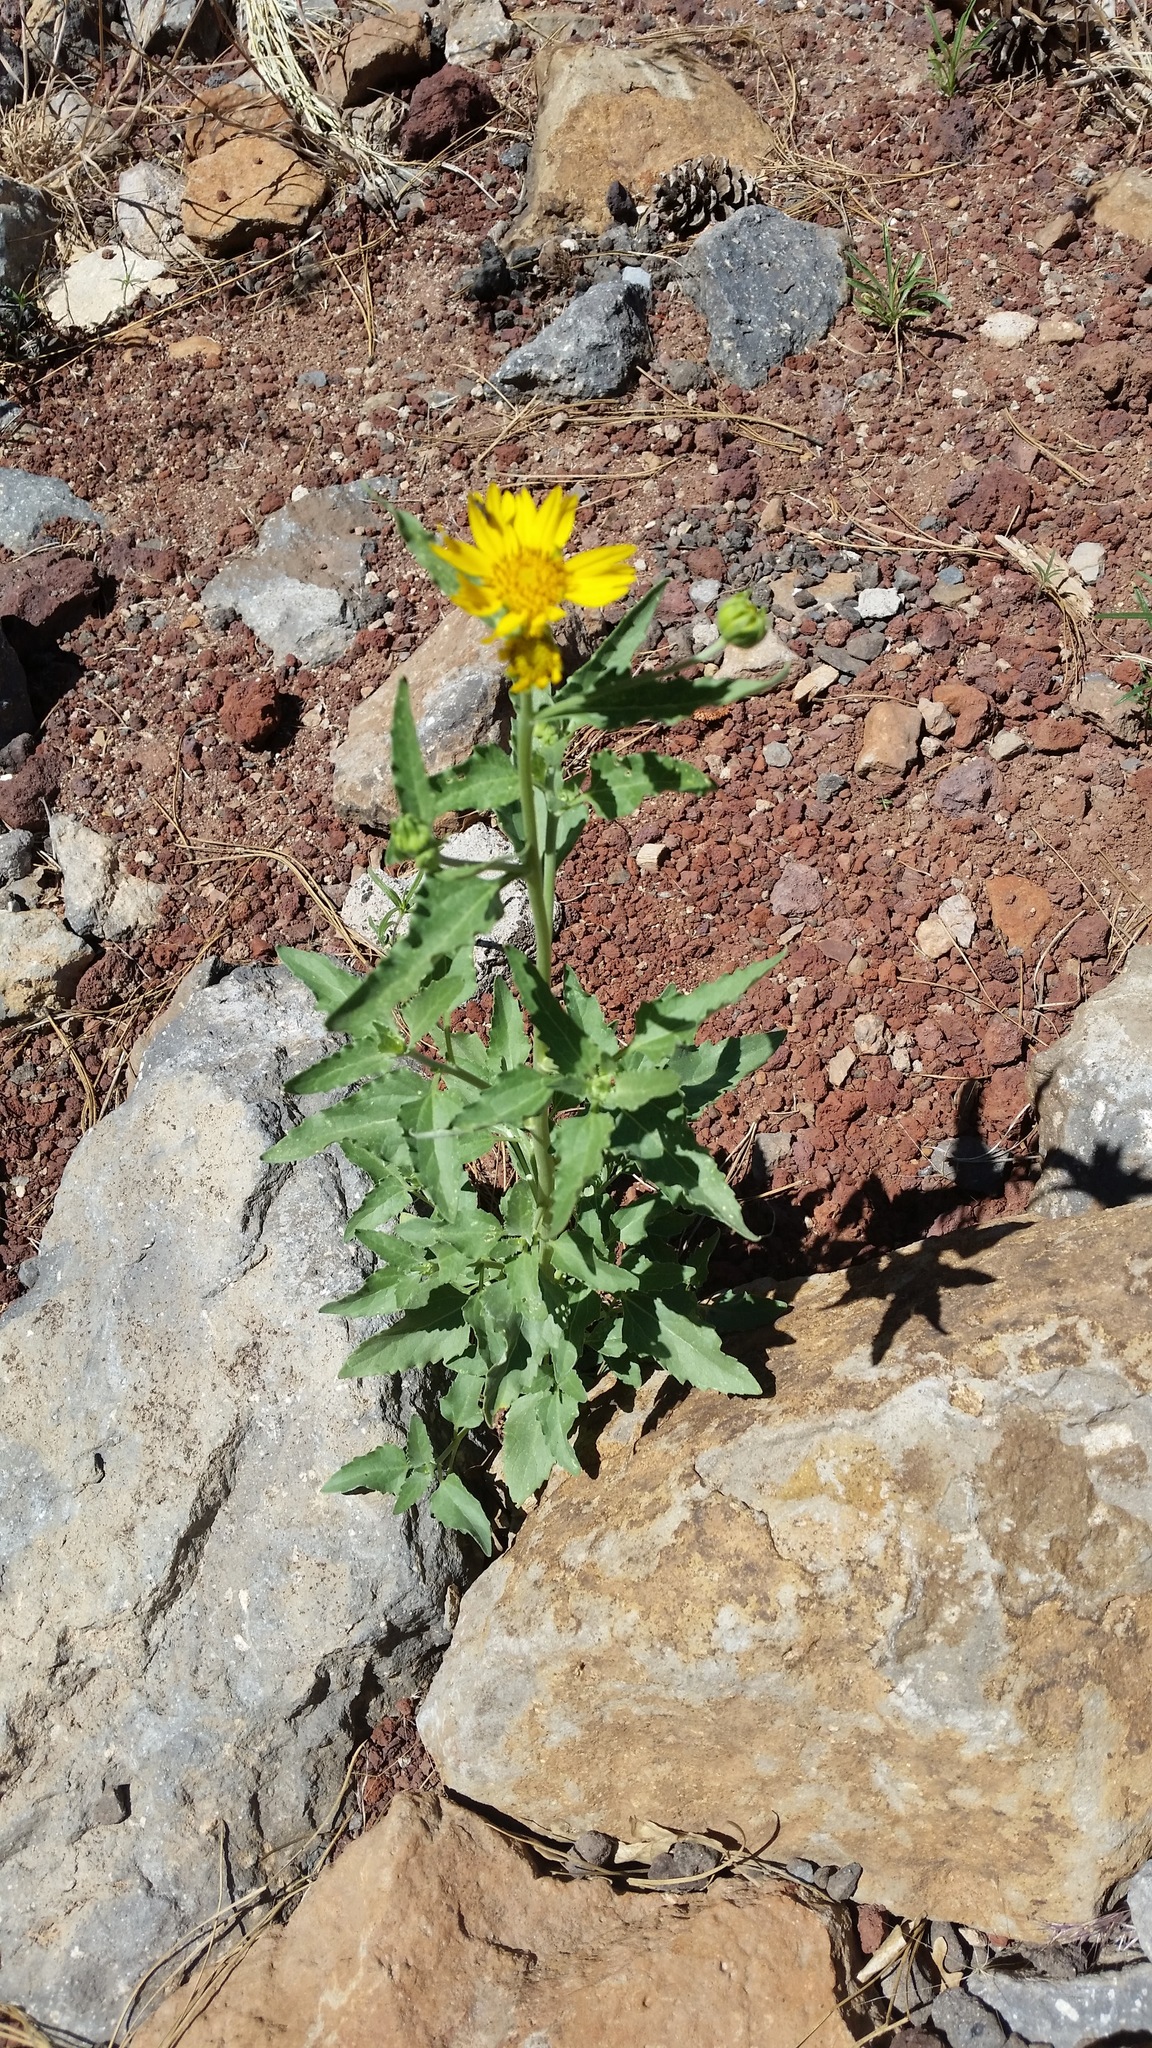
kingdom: Plantae
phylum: Tracheophyta
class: Magnoliopsida
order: Asterales
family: Asteraceae
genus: Verbesina
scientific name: Verbesina encelioides
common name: Golden crownbeard
